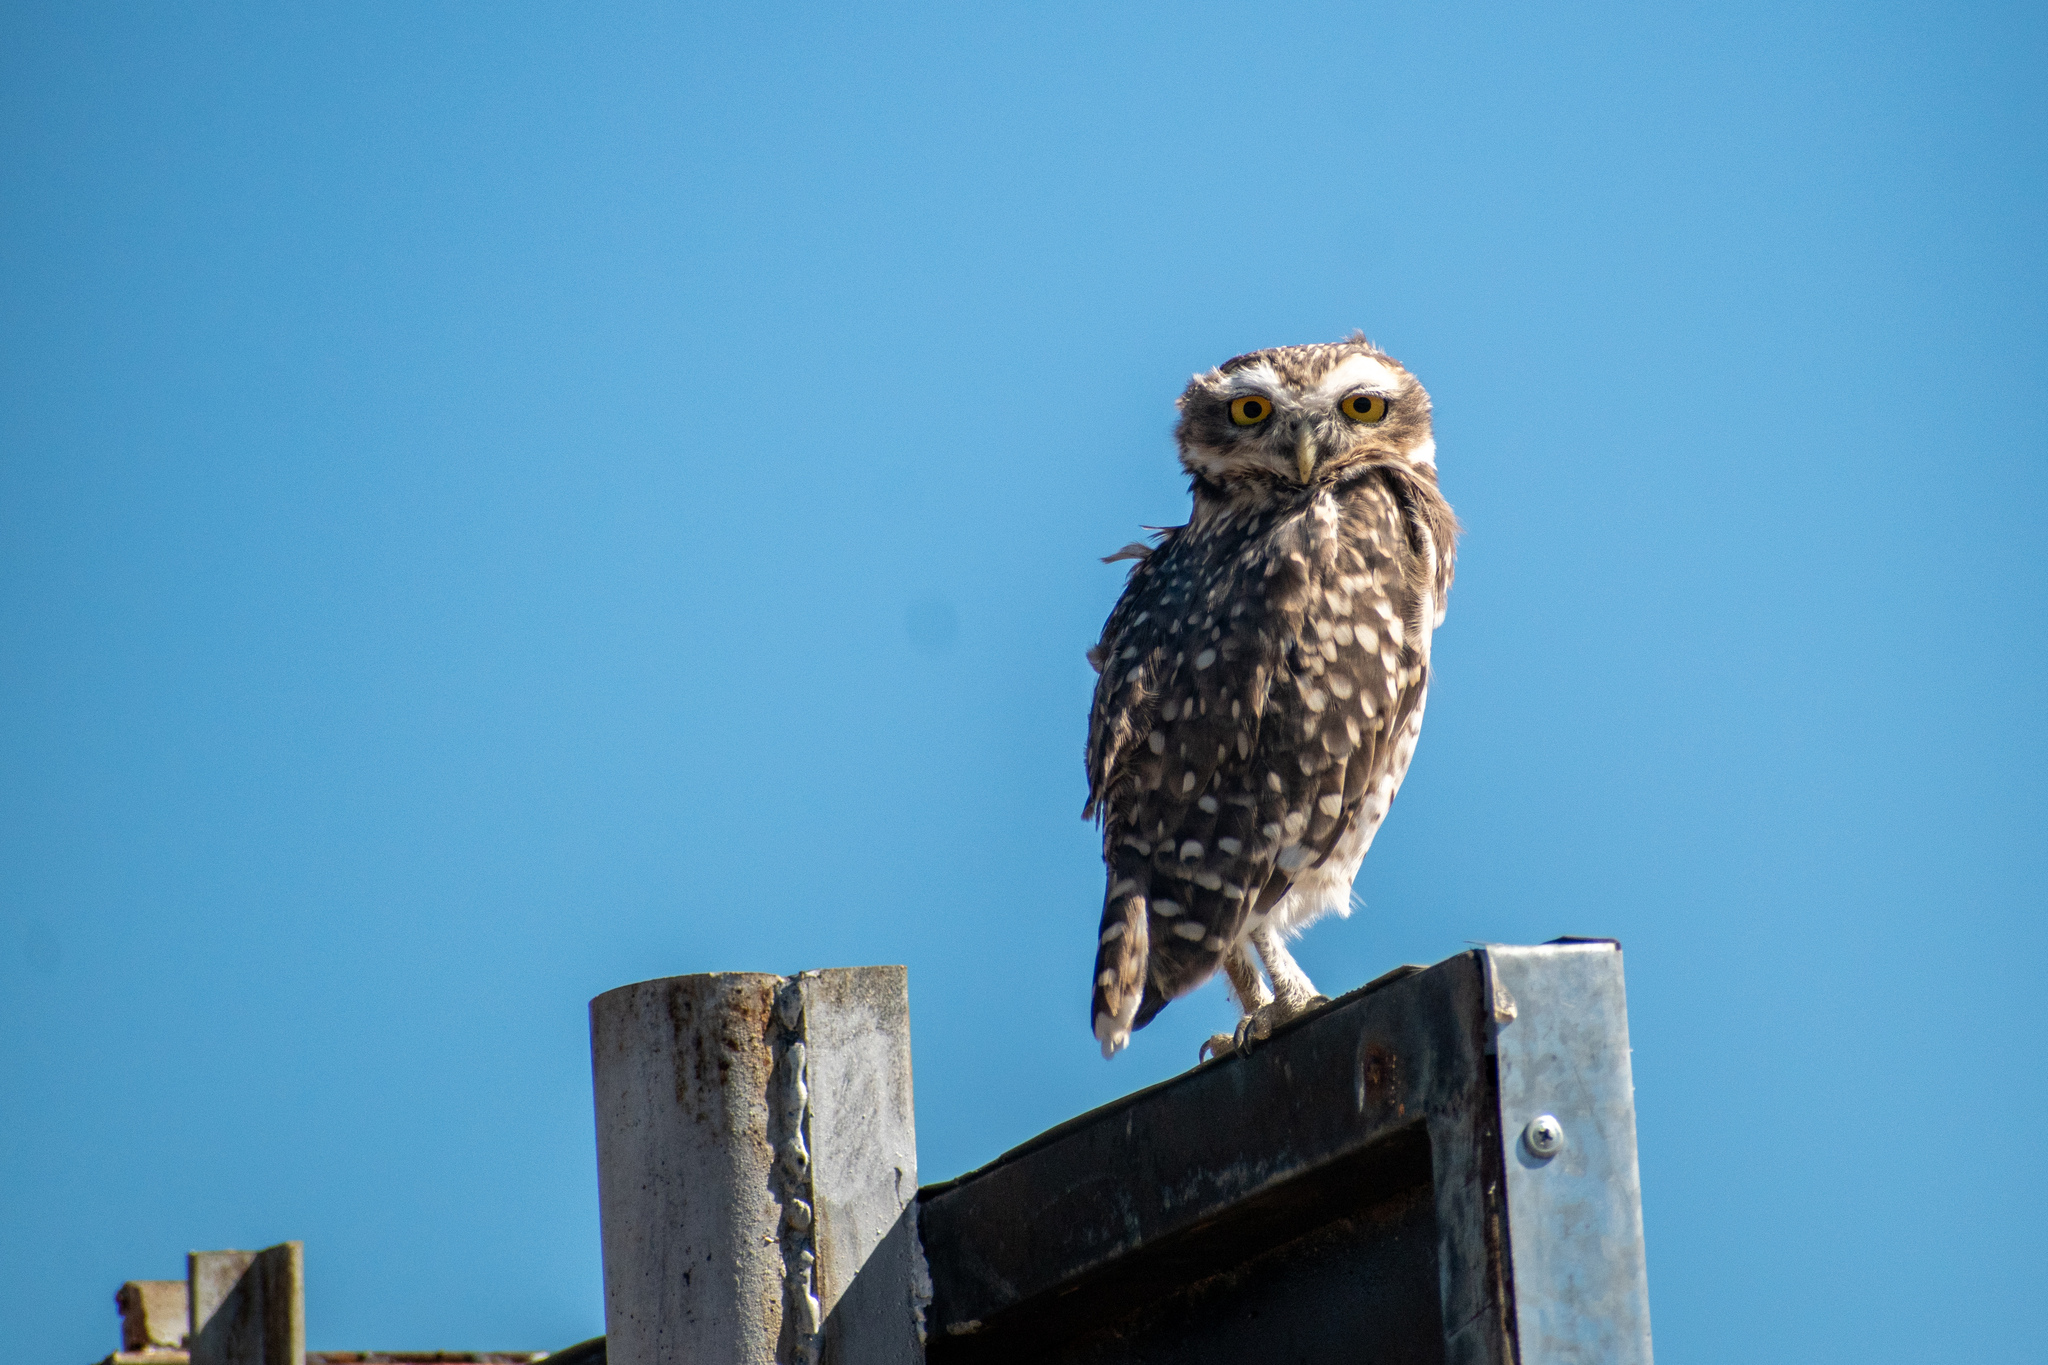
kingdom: Animalia
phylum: Chordata
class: Aves
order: Strigiformes
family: Strigidae
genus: Athene
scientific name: Athene cunicularia
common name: Burrowing owl
